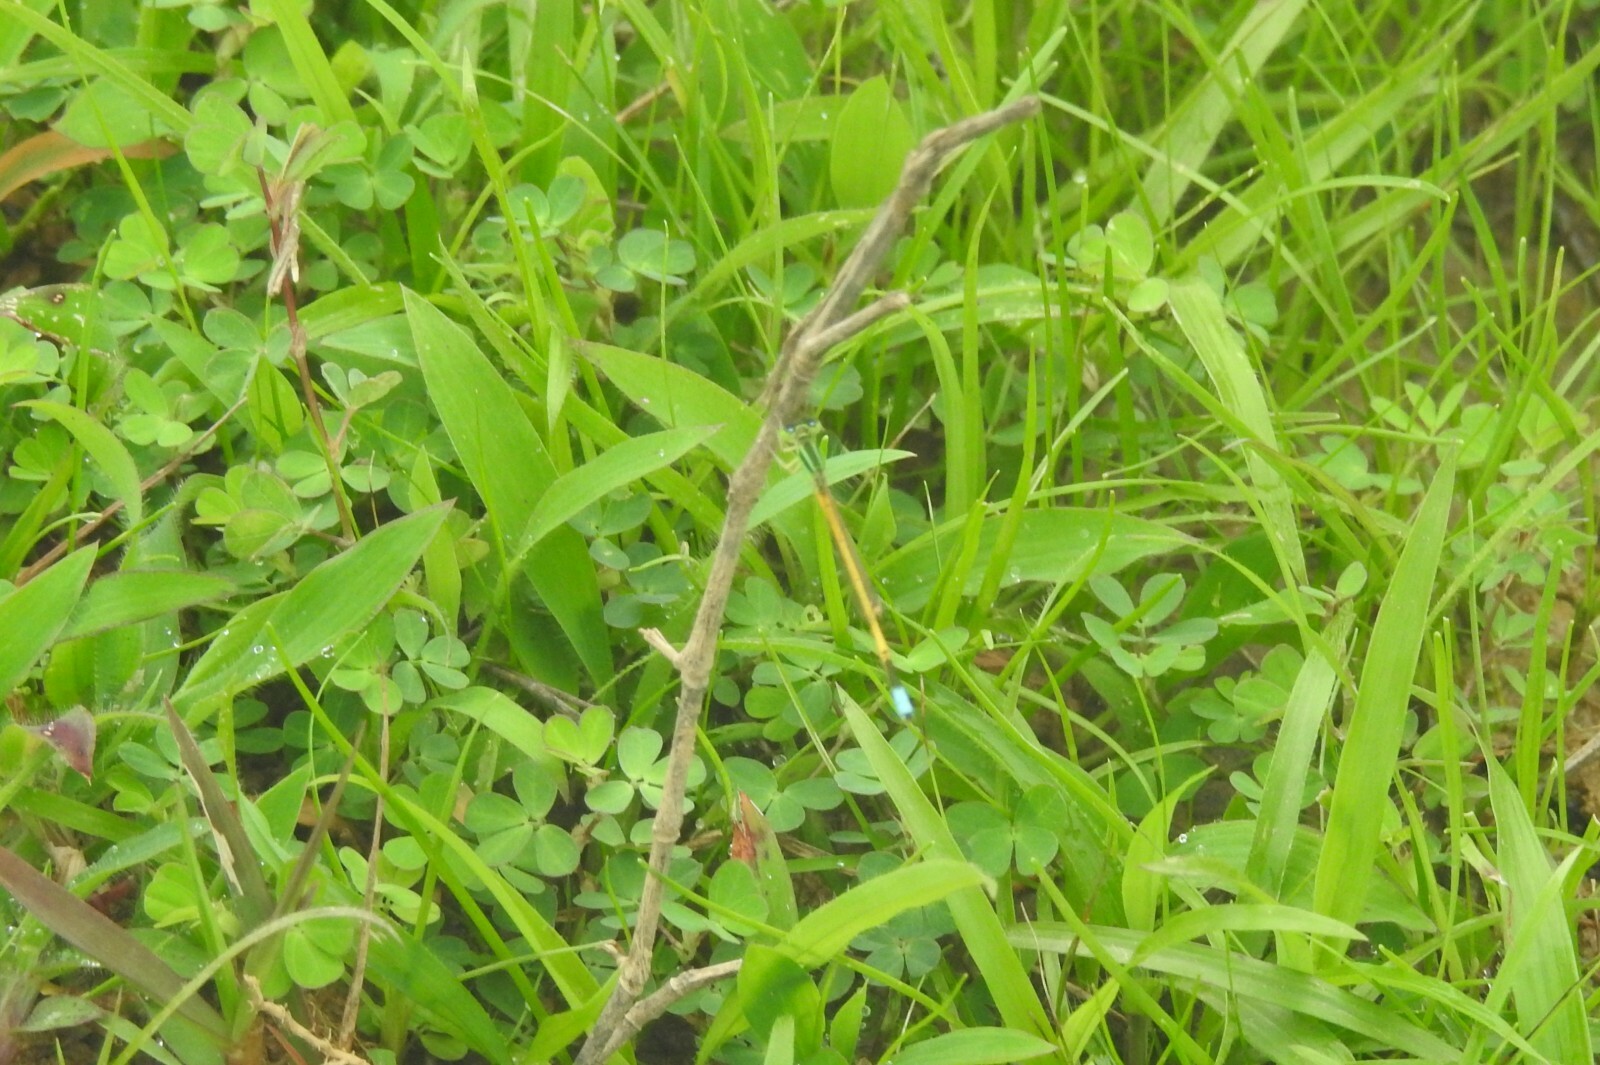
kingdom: Animalia
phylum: Arthropoda
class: Insecta
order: Odonata
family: Coenagrionidae
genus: Ischnura
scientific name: Ischnura rubilio
